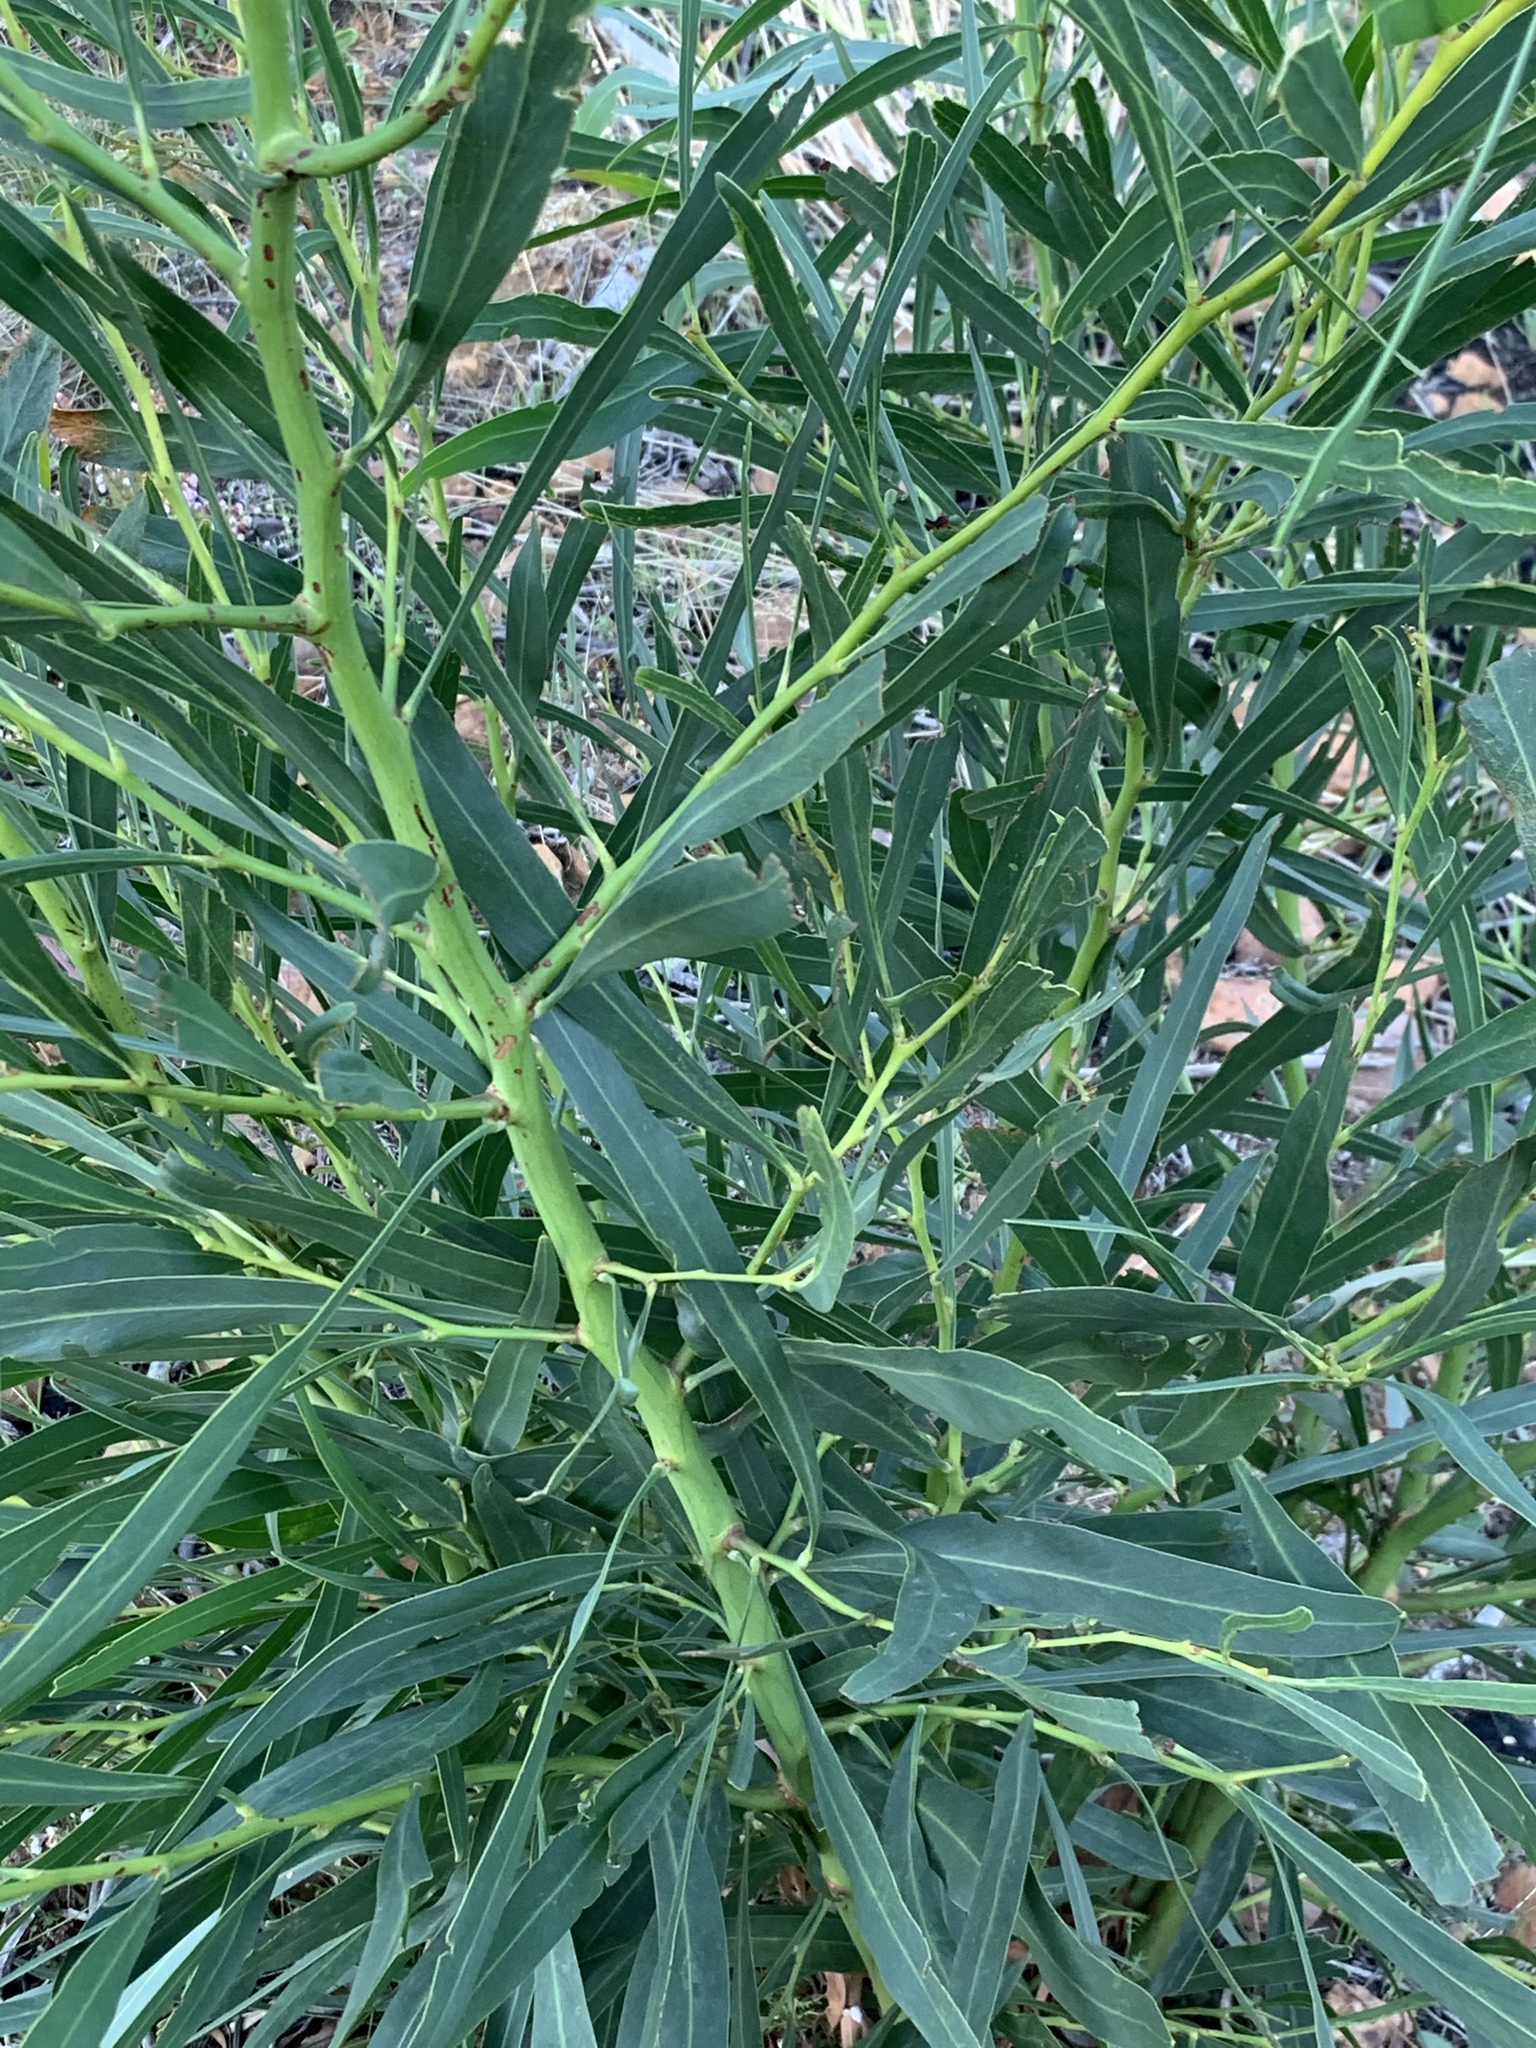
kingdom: Plantae
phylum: Tracheophyta
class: Magnoliopsida
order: Fabales
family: Fabaceae
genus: Acacia
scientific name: Acacia saligna
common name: Orange wattle
